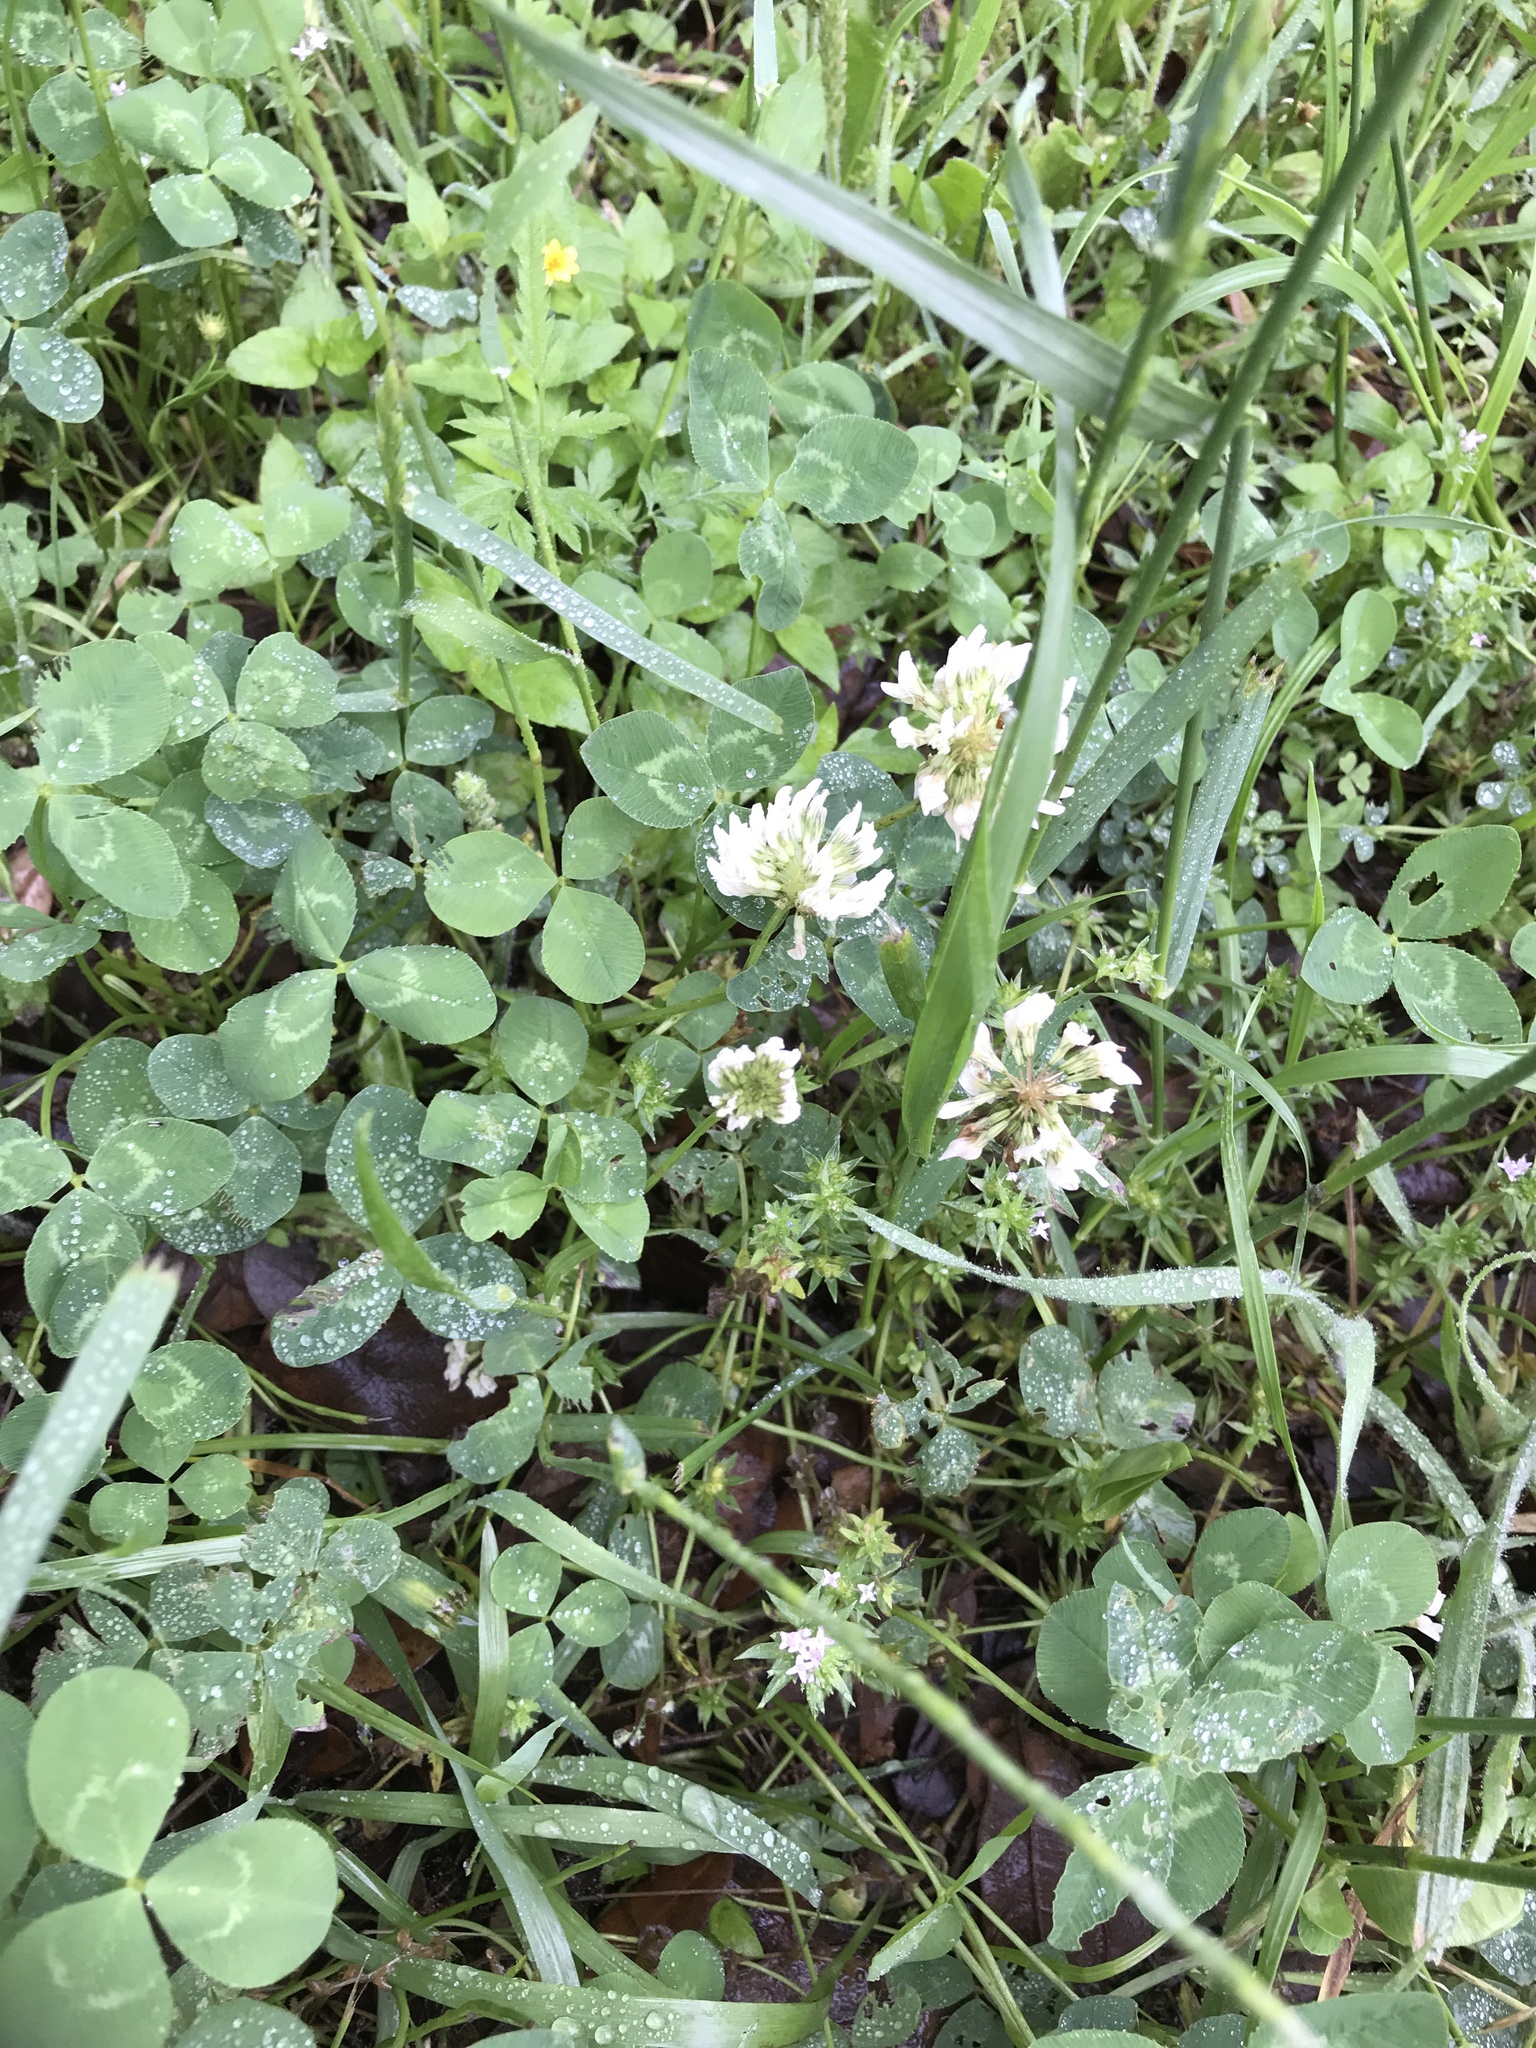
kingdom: Plantae
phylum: Tracheophyta
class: Magnoliopsida
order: Fabales
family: Fabaceae
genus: Trifolium
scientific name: Trifolium repens
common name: White clover
